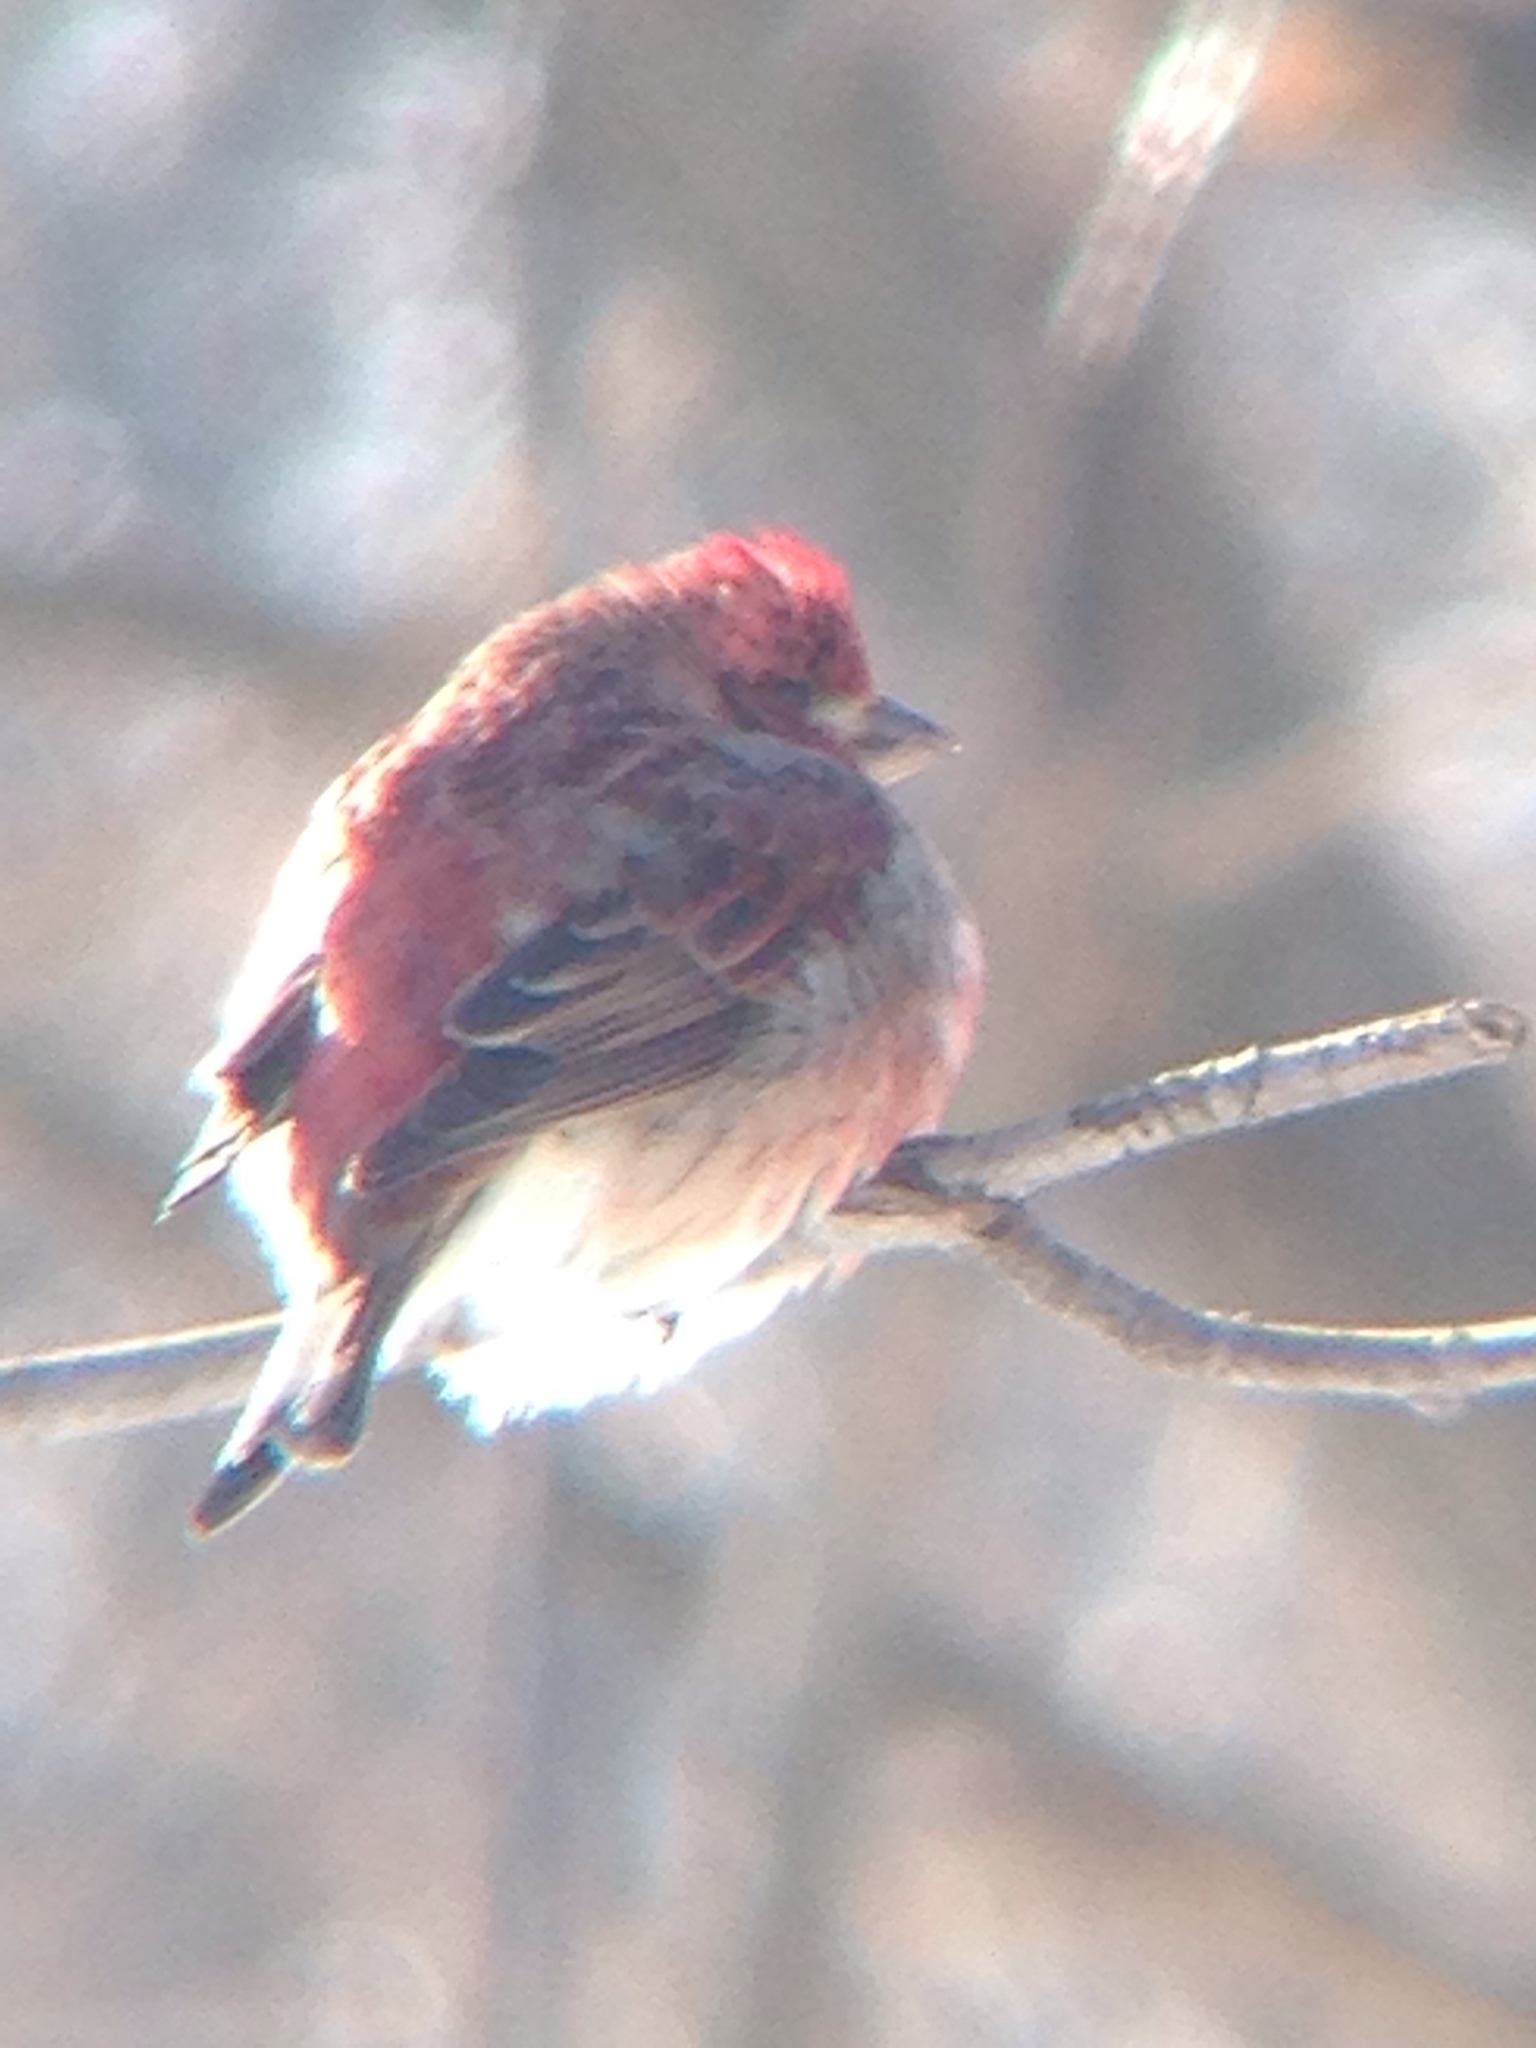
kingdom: Animalia
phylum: Chordata
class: Aves
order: Passeriformes
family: Fringillidae
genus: Haemorhous
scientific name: Haemorhous purpureus
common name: Purple finch
